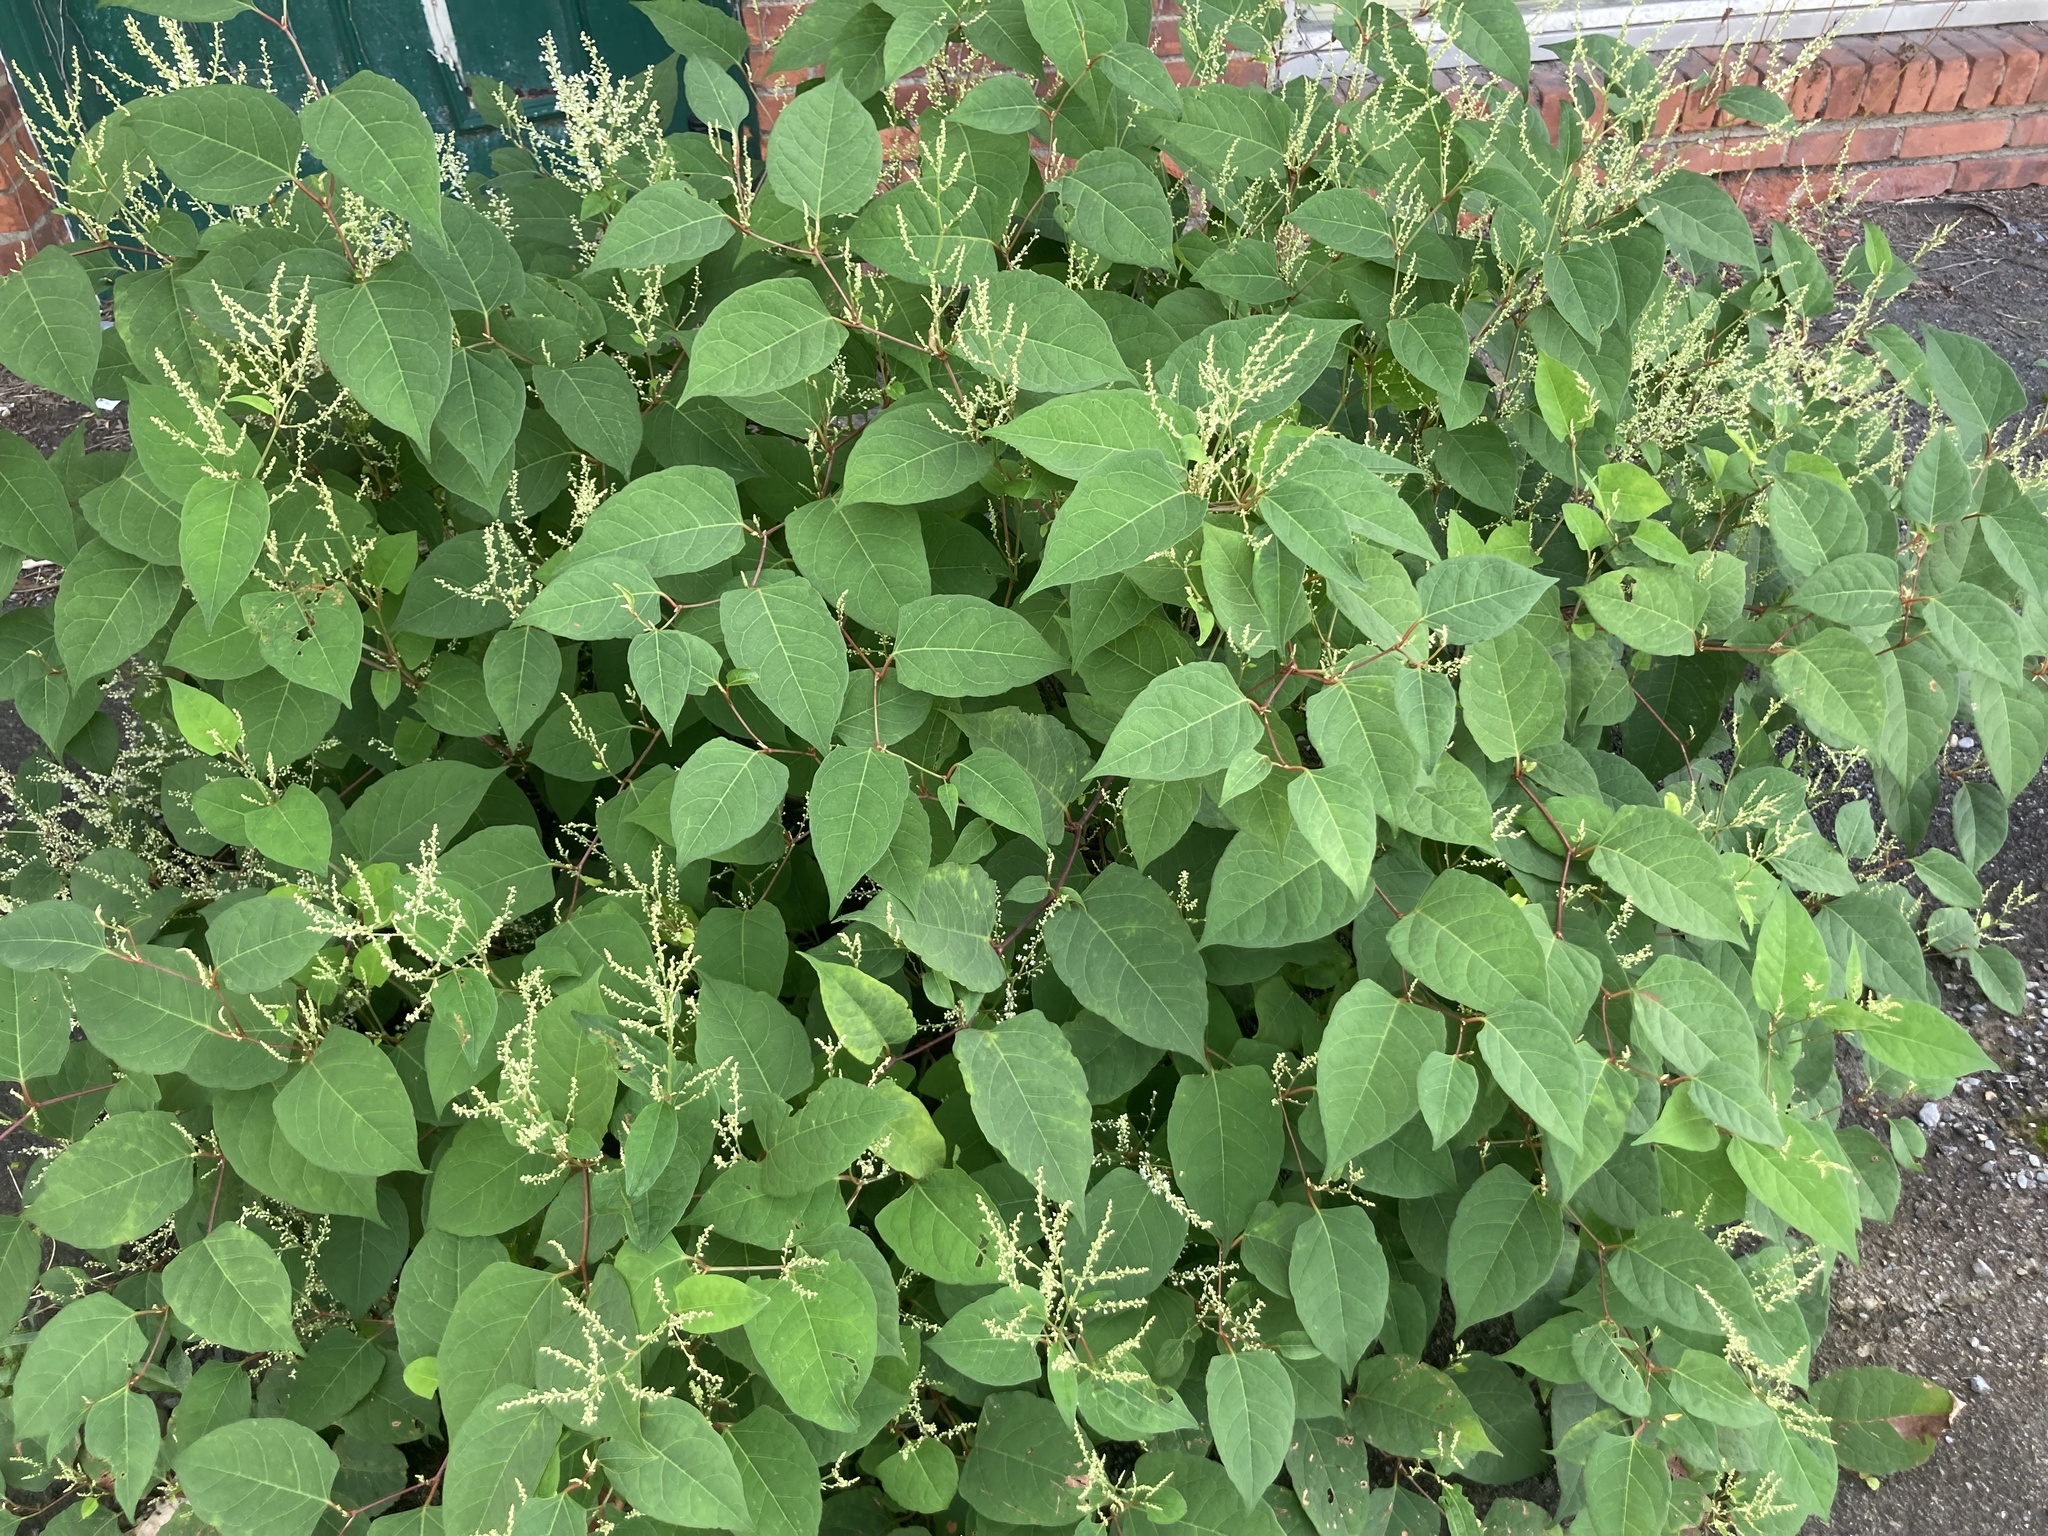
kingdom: Plantae
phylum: Tracheophyta
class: Magnoliopsida
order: Caryophyllales
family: Polygonaceae
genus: Reynoutria
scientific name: Reynoutria japonica
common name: Japanese knotweed
